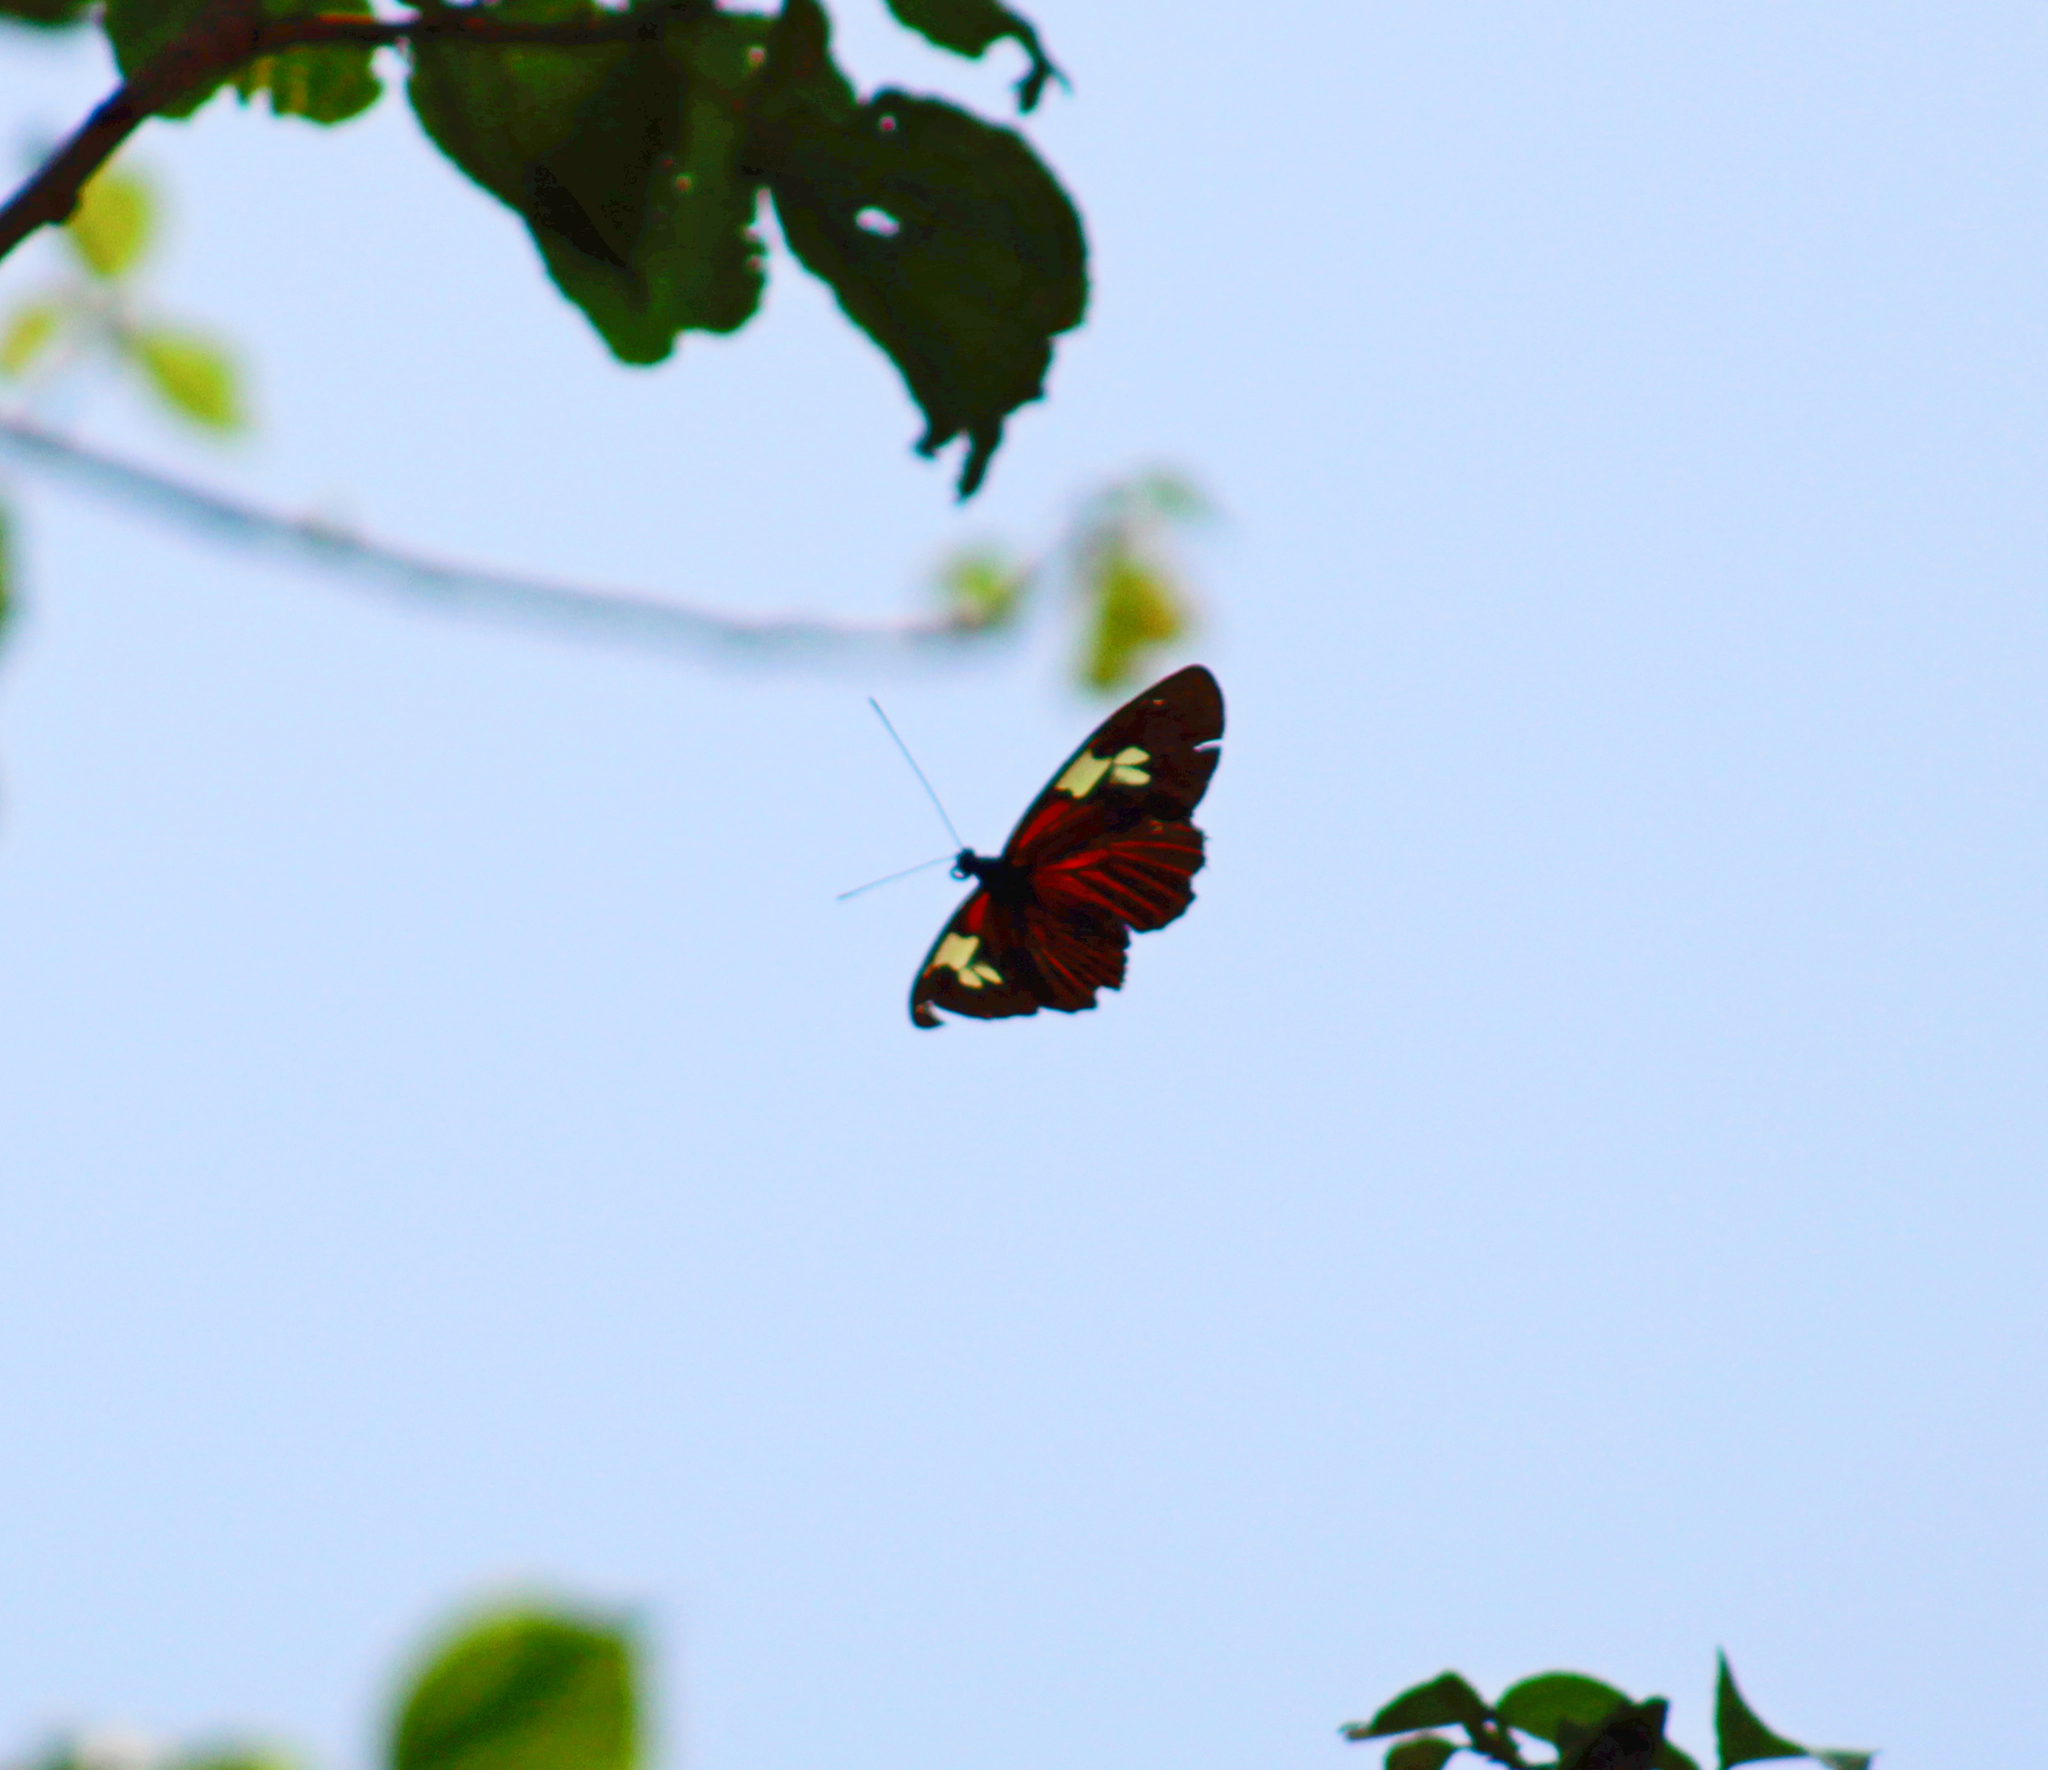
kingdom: Animalia
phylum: Arthropoda
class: Insecta
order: Lepidoptera
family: Nymphalidae
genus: Heliconius
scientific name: Heliconius burneyi
